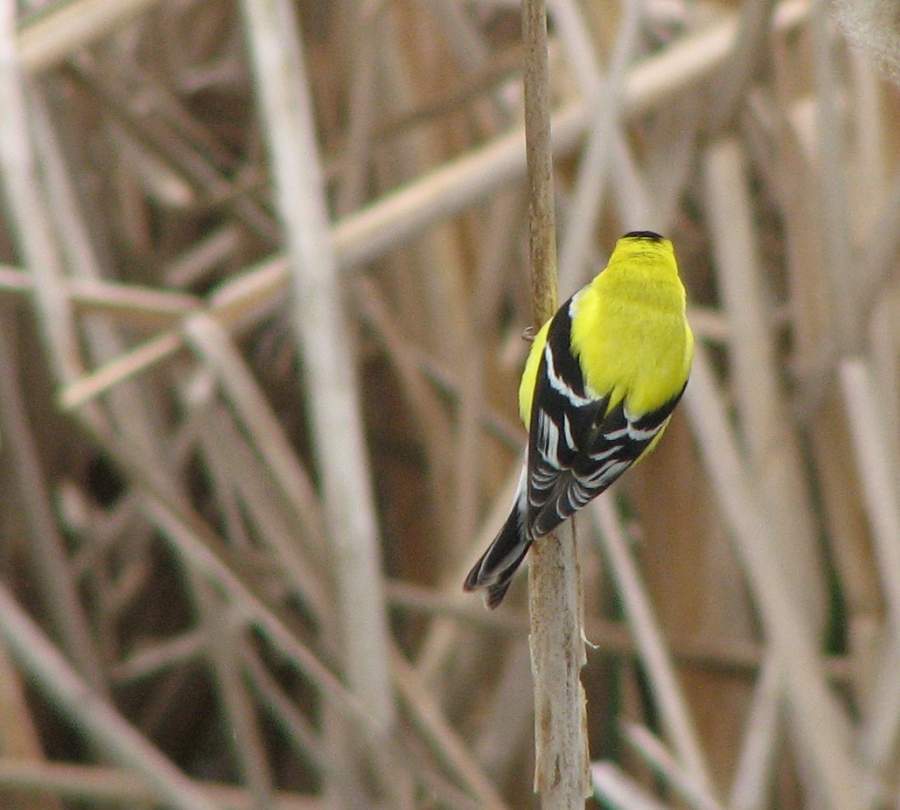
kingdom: Animalia
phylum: Chordata
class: Aves
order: Passeriformes
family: Fringillidae
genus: Spinus
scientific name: Spinus tristis
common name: American goldfinch
